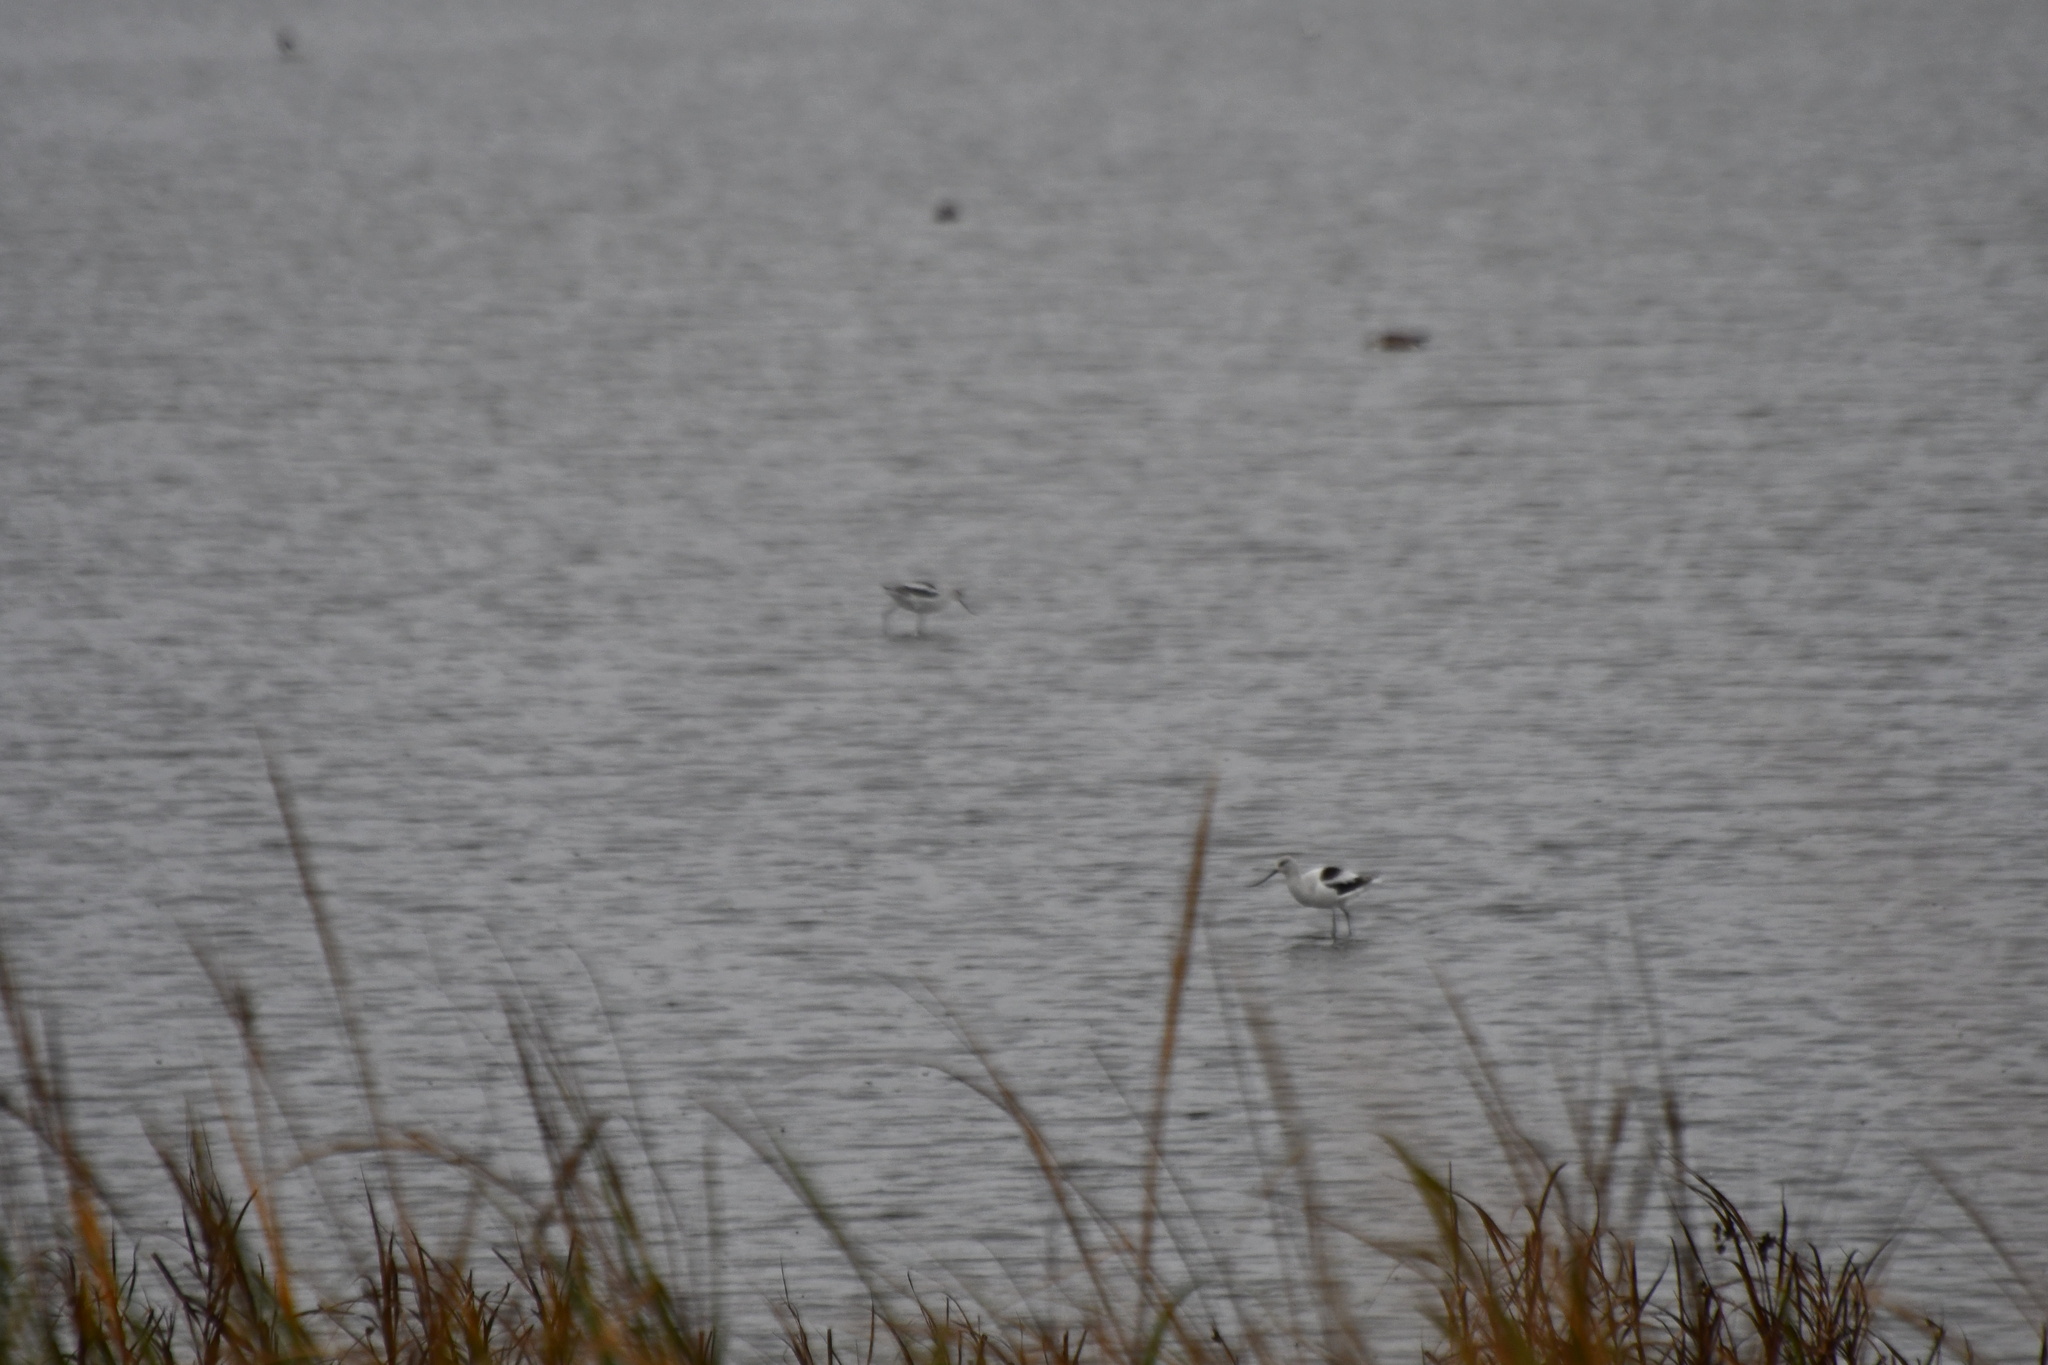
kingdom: Animalia
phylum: Chordata
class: Aves
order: Charadriiformes
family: Recurvirostridae
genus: Recurvirostra
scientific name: Recurvirostra americana
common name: American avocet
